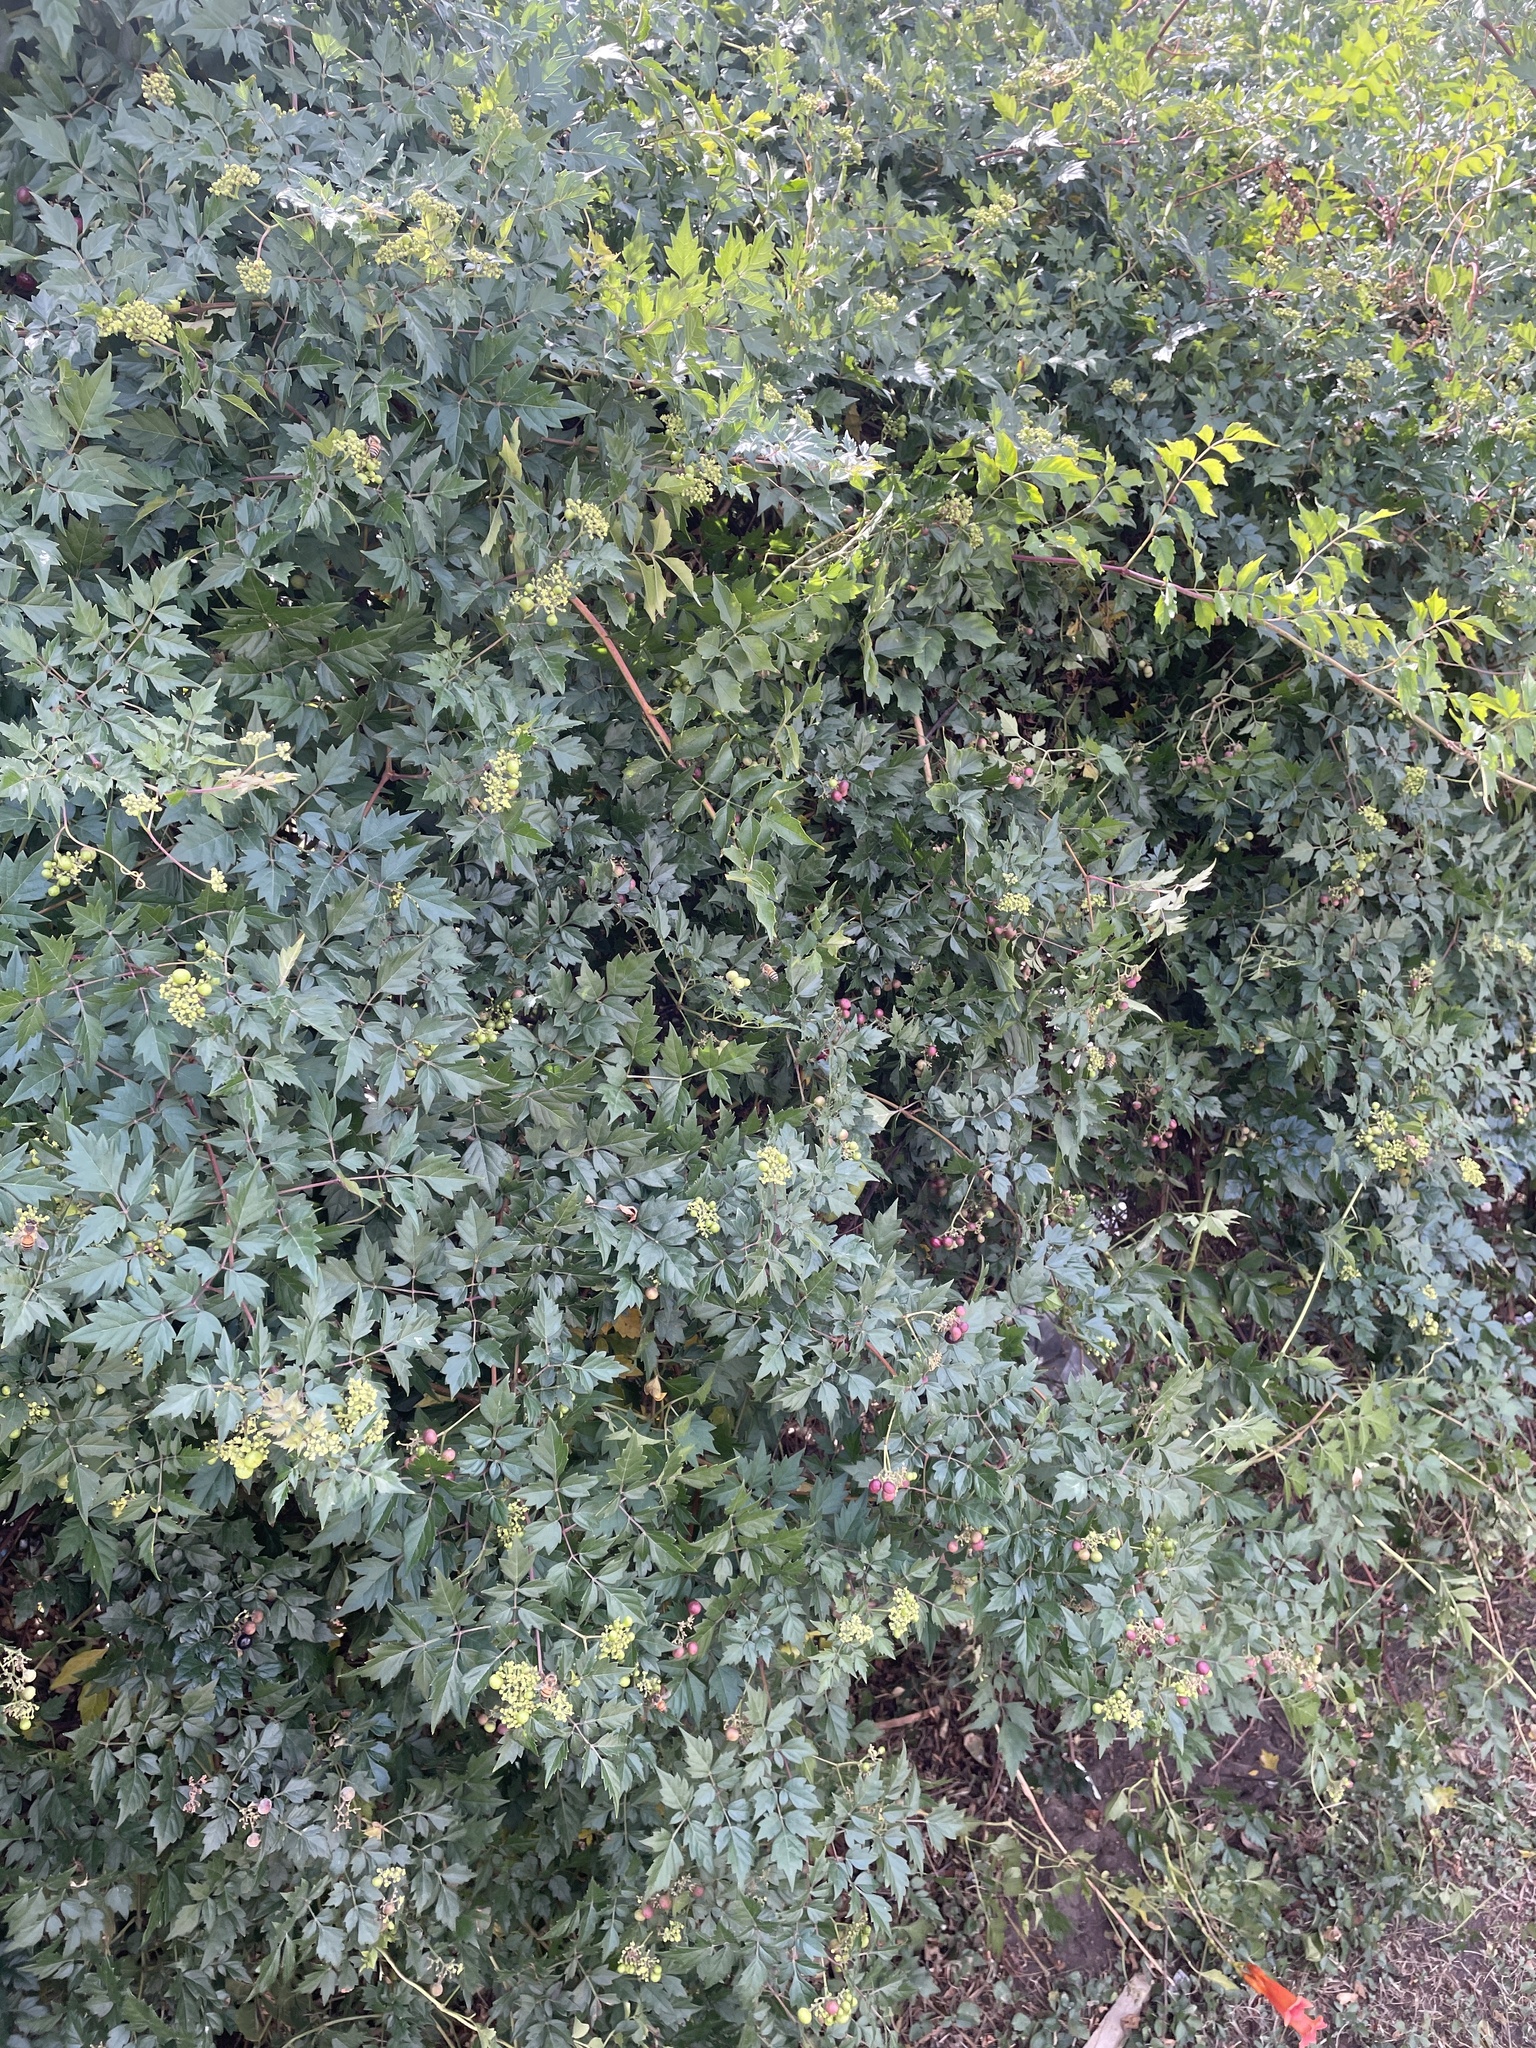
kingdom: Plantae
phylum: Tracheophyta
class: Magnoliopsida
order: Vitales
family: Vitaceae
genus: Nekemias
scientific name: Nekemias arborea
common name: Peppervine
